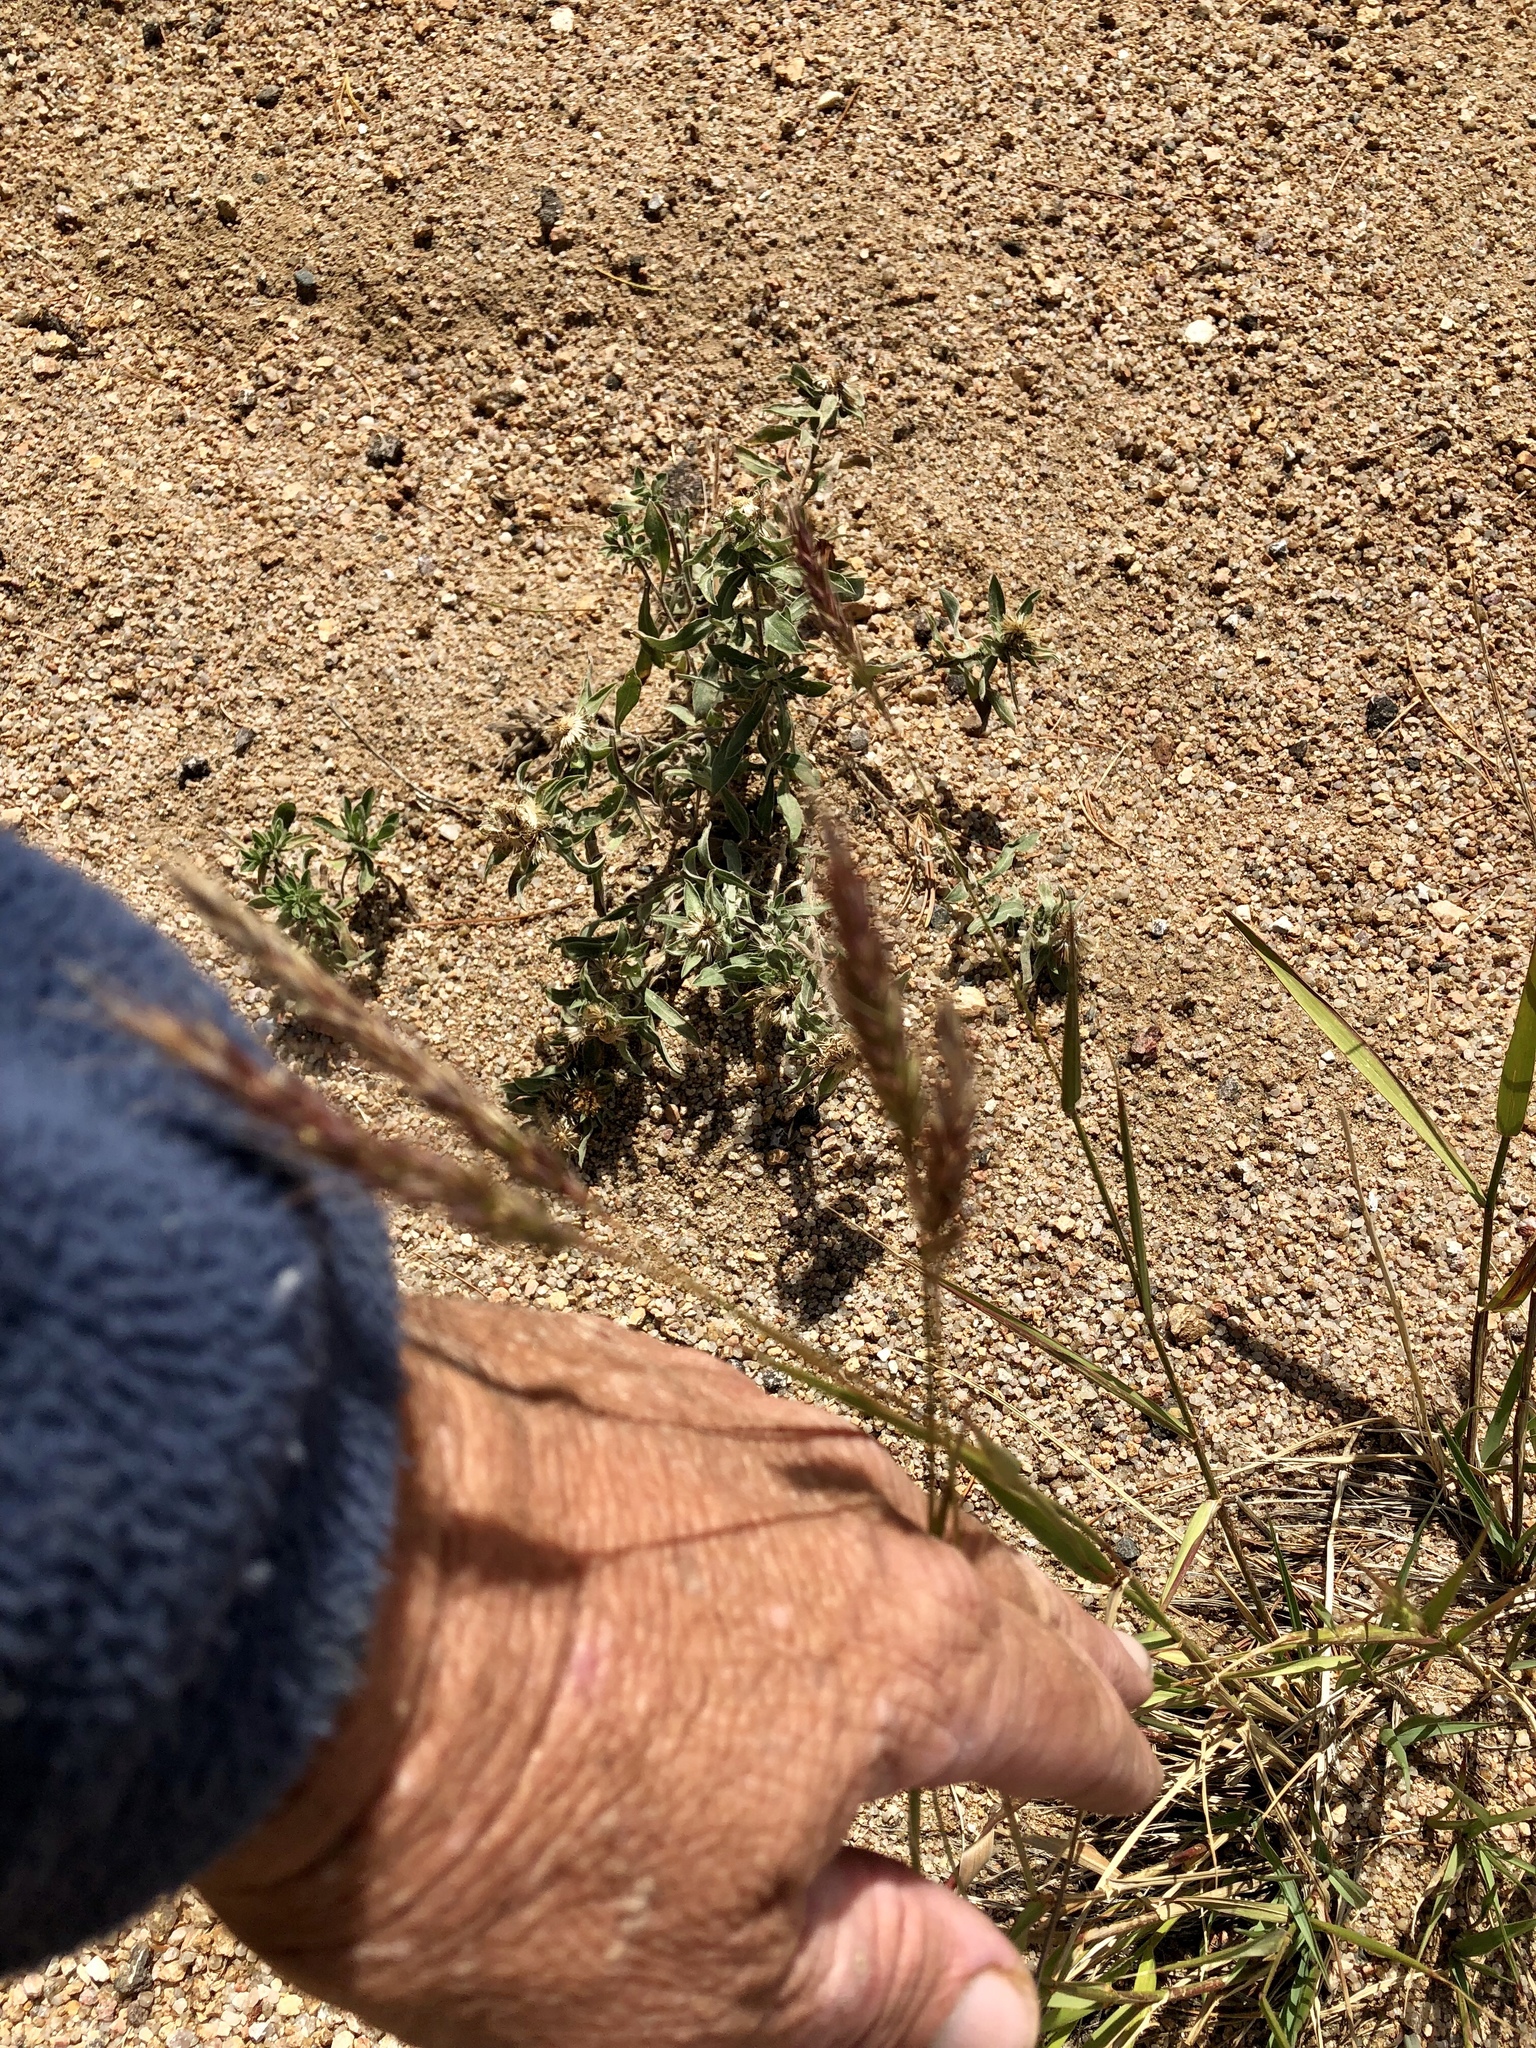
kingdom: Plantae
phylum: Tracheophyta
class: Liliopsida
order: Poales
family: Poaceae
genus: Koeleria
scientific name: Koeleria spicata
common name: Mountain trisetum
